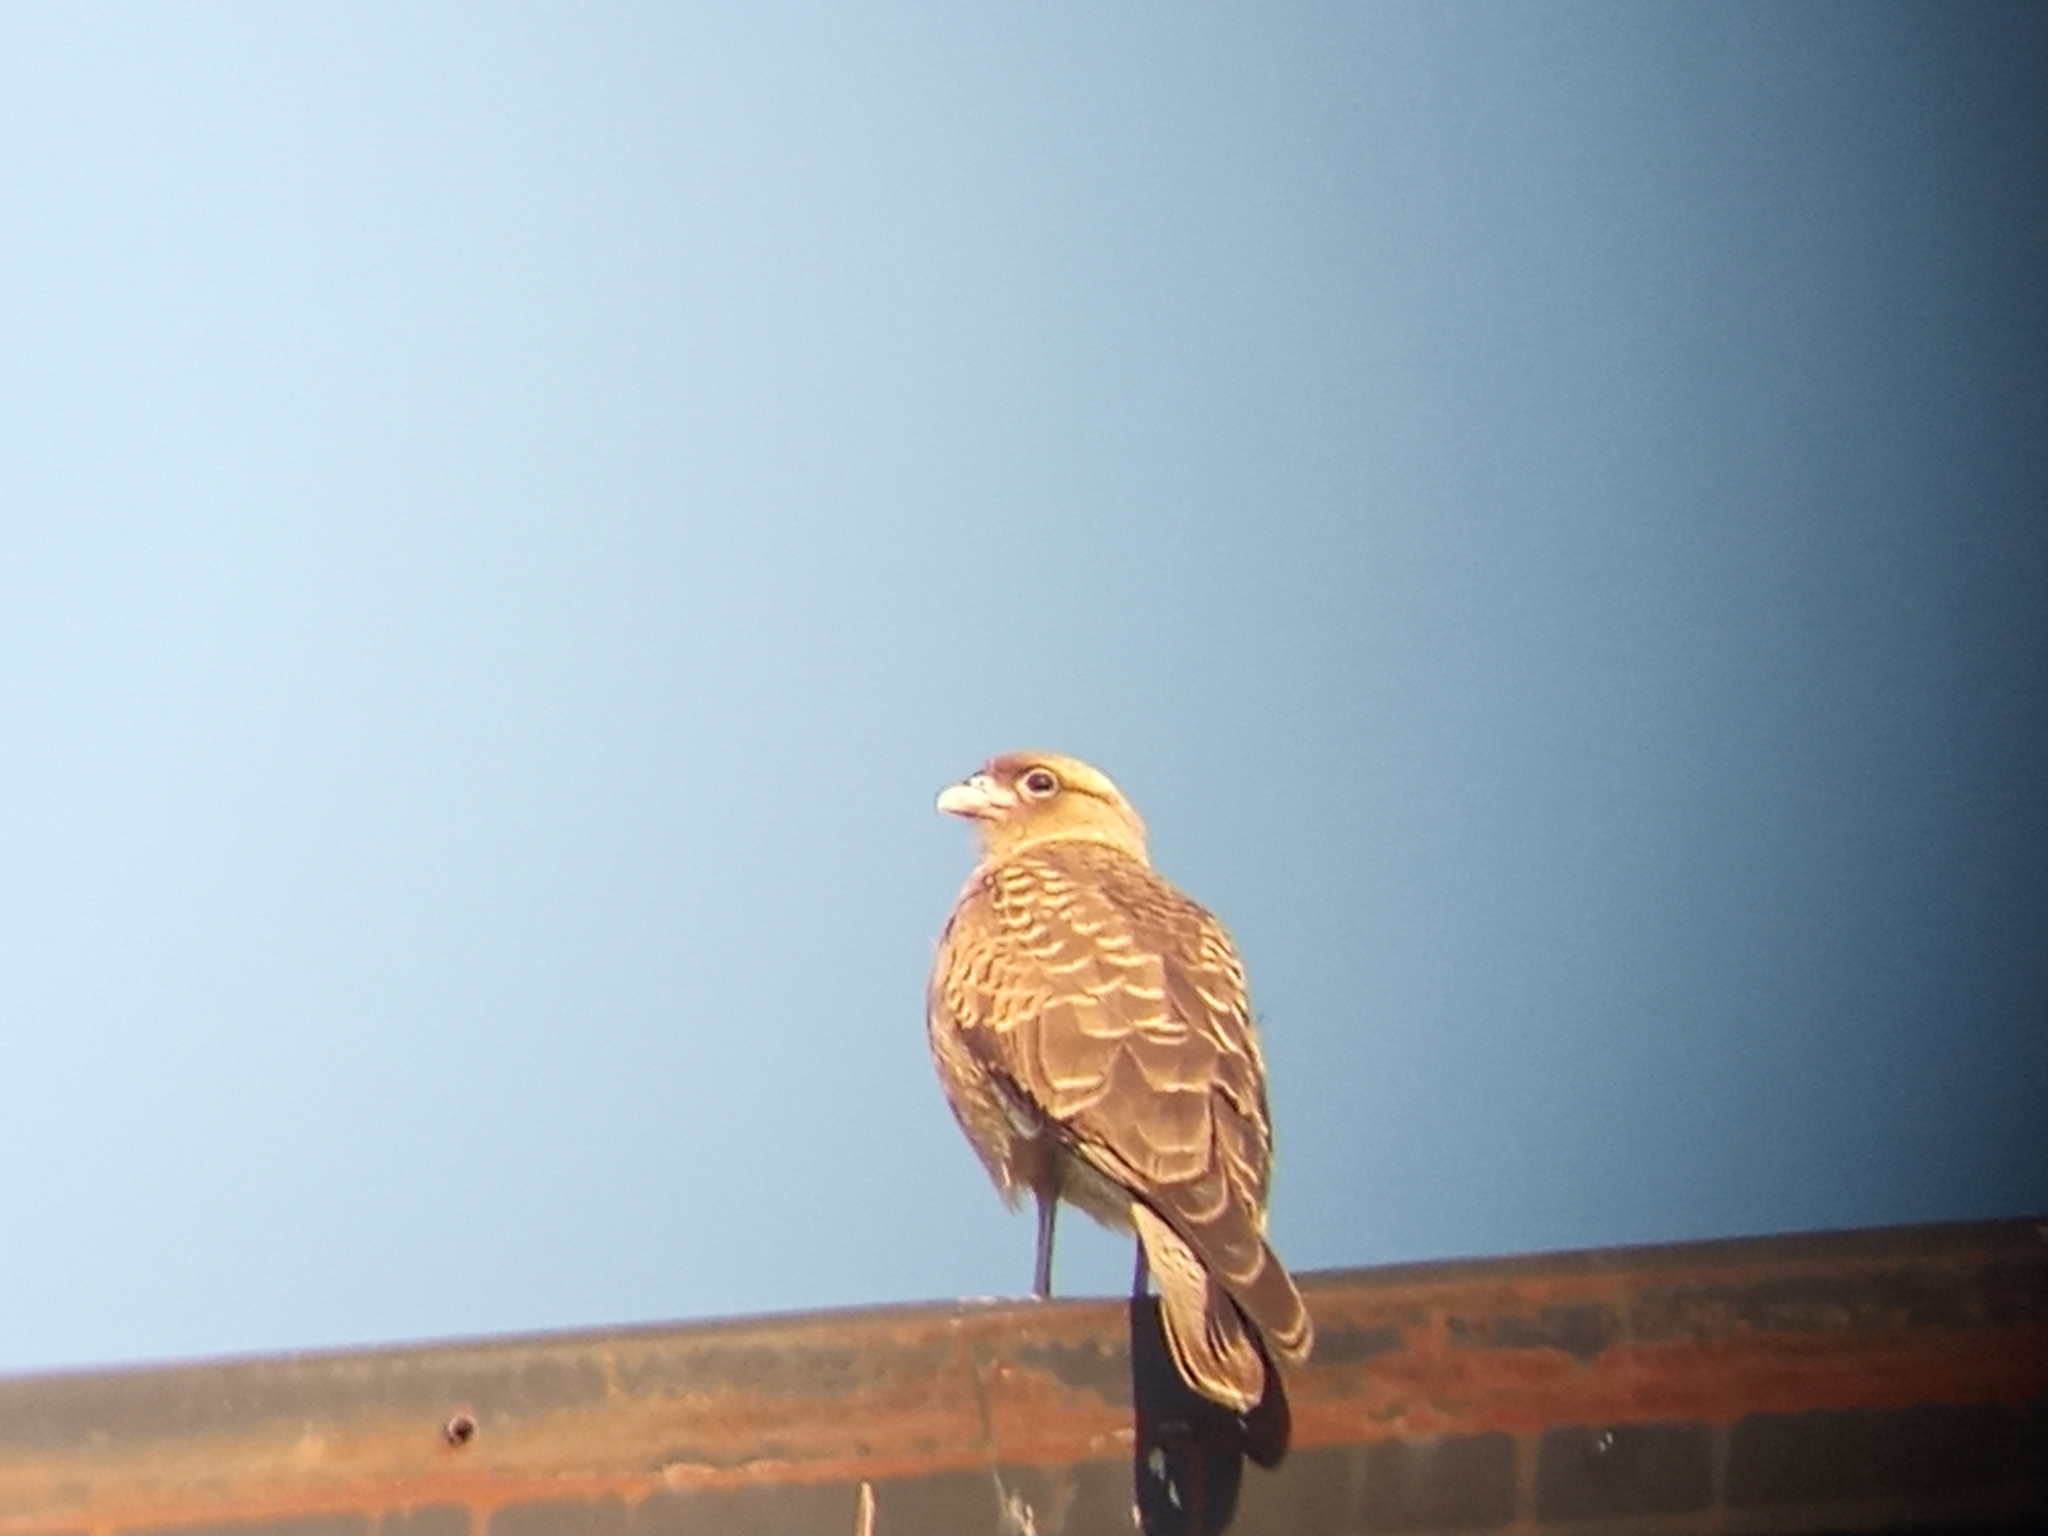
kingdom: Animalia
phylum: Chordata
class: Aves
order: Falconiformes
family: Falconidae
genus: Daptrius
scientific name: Daptrius
